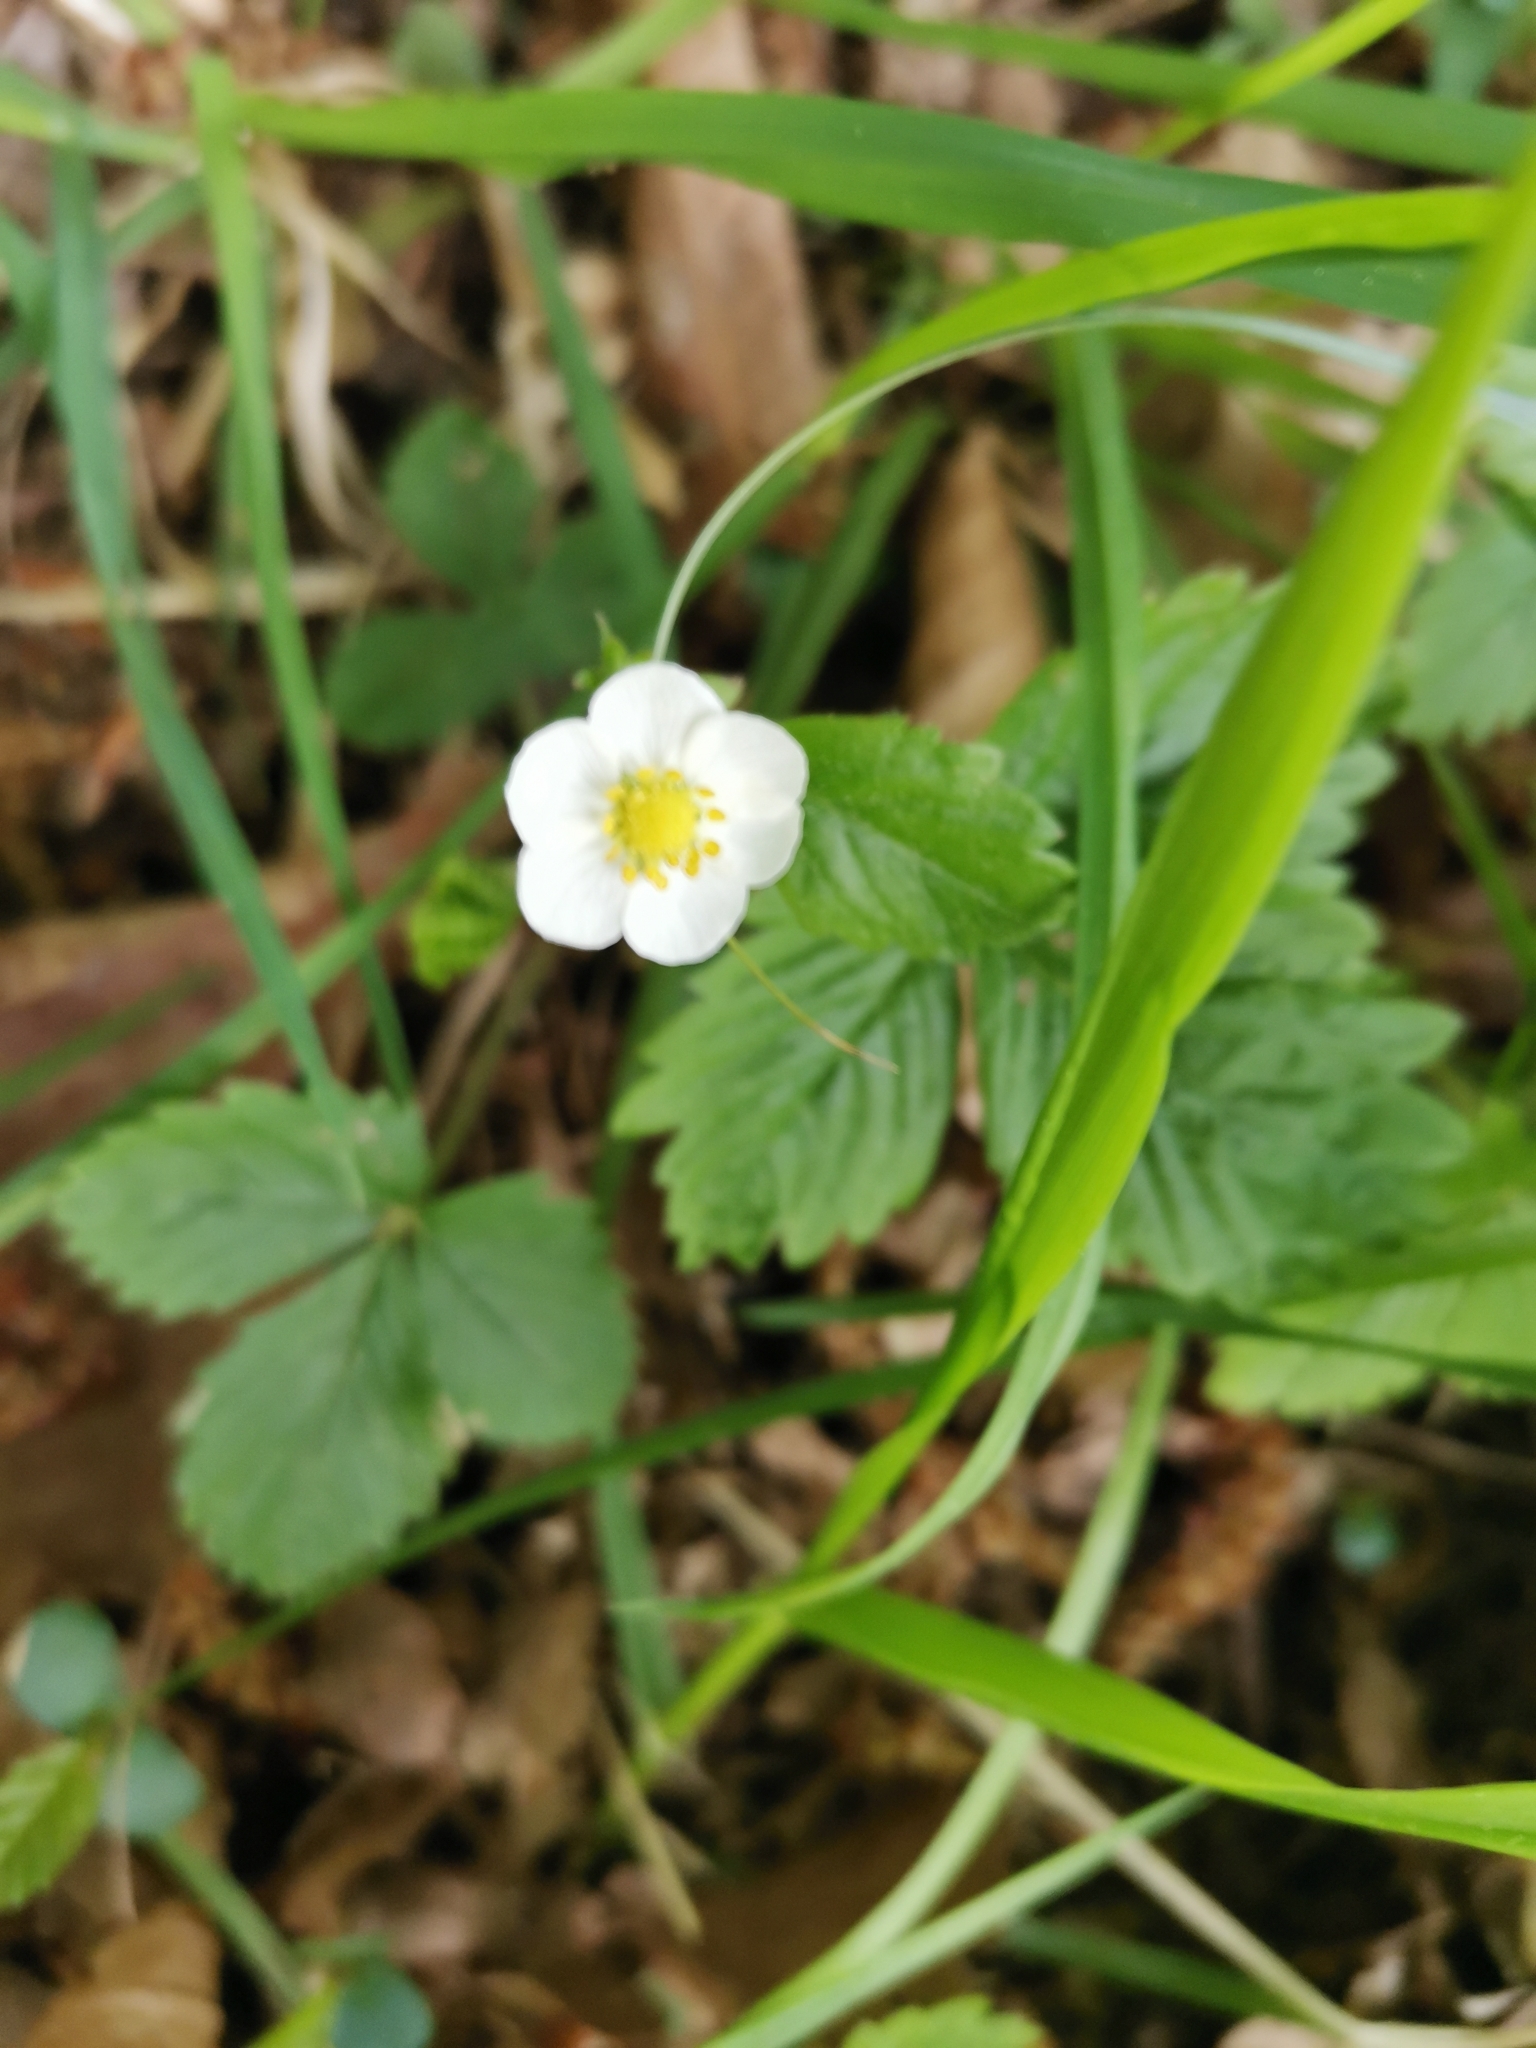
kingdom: Plantae
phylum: Tracheophyta
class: Magnoliopsida
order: Rosales
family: Rosaceae
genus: Fragaria
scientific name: Fragaria vesca
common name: Wild strawberry
